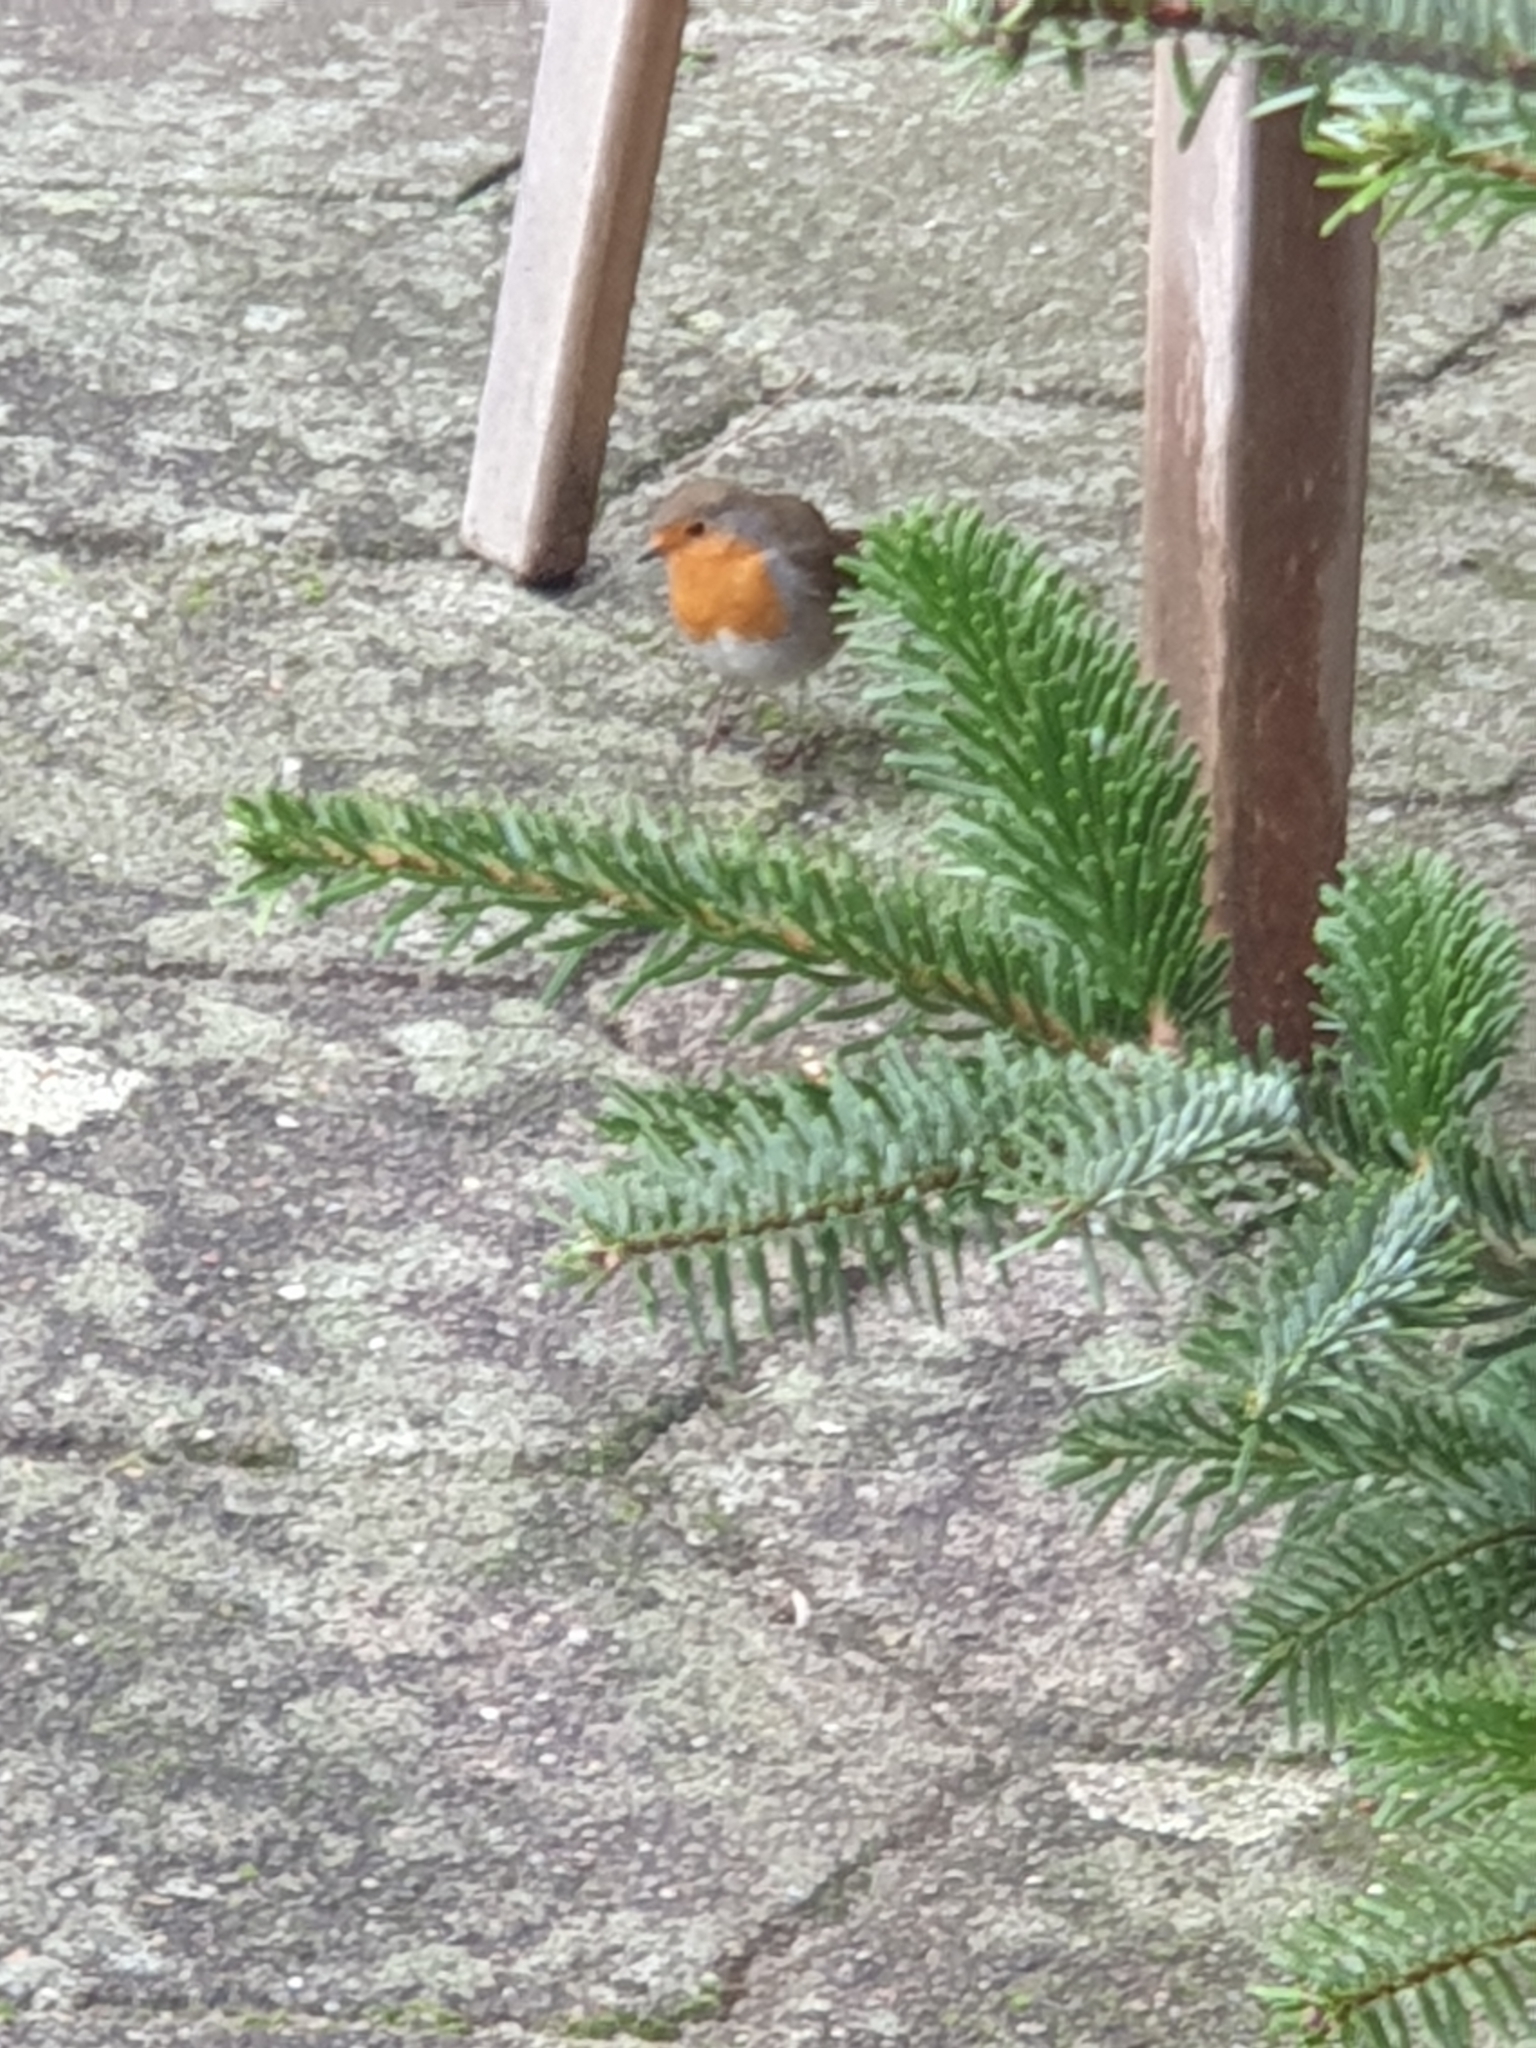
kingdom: Animalia
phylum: Chordata
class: Aves
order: Passeriformes
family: Muscicapidae
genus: Erithacus
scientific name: Erithacus rubecula
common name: European robin
